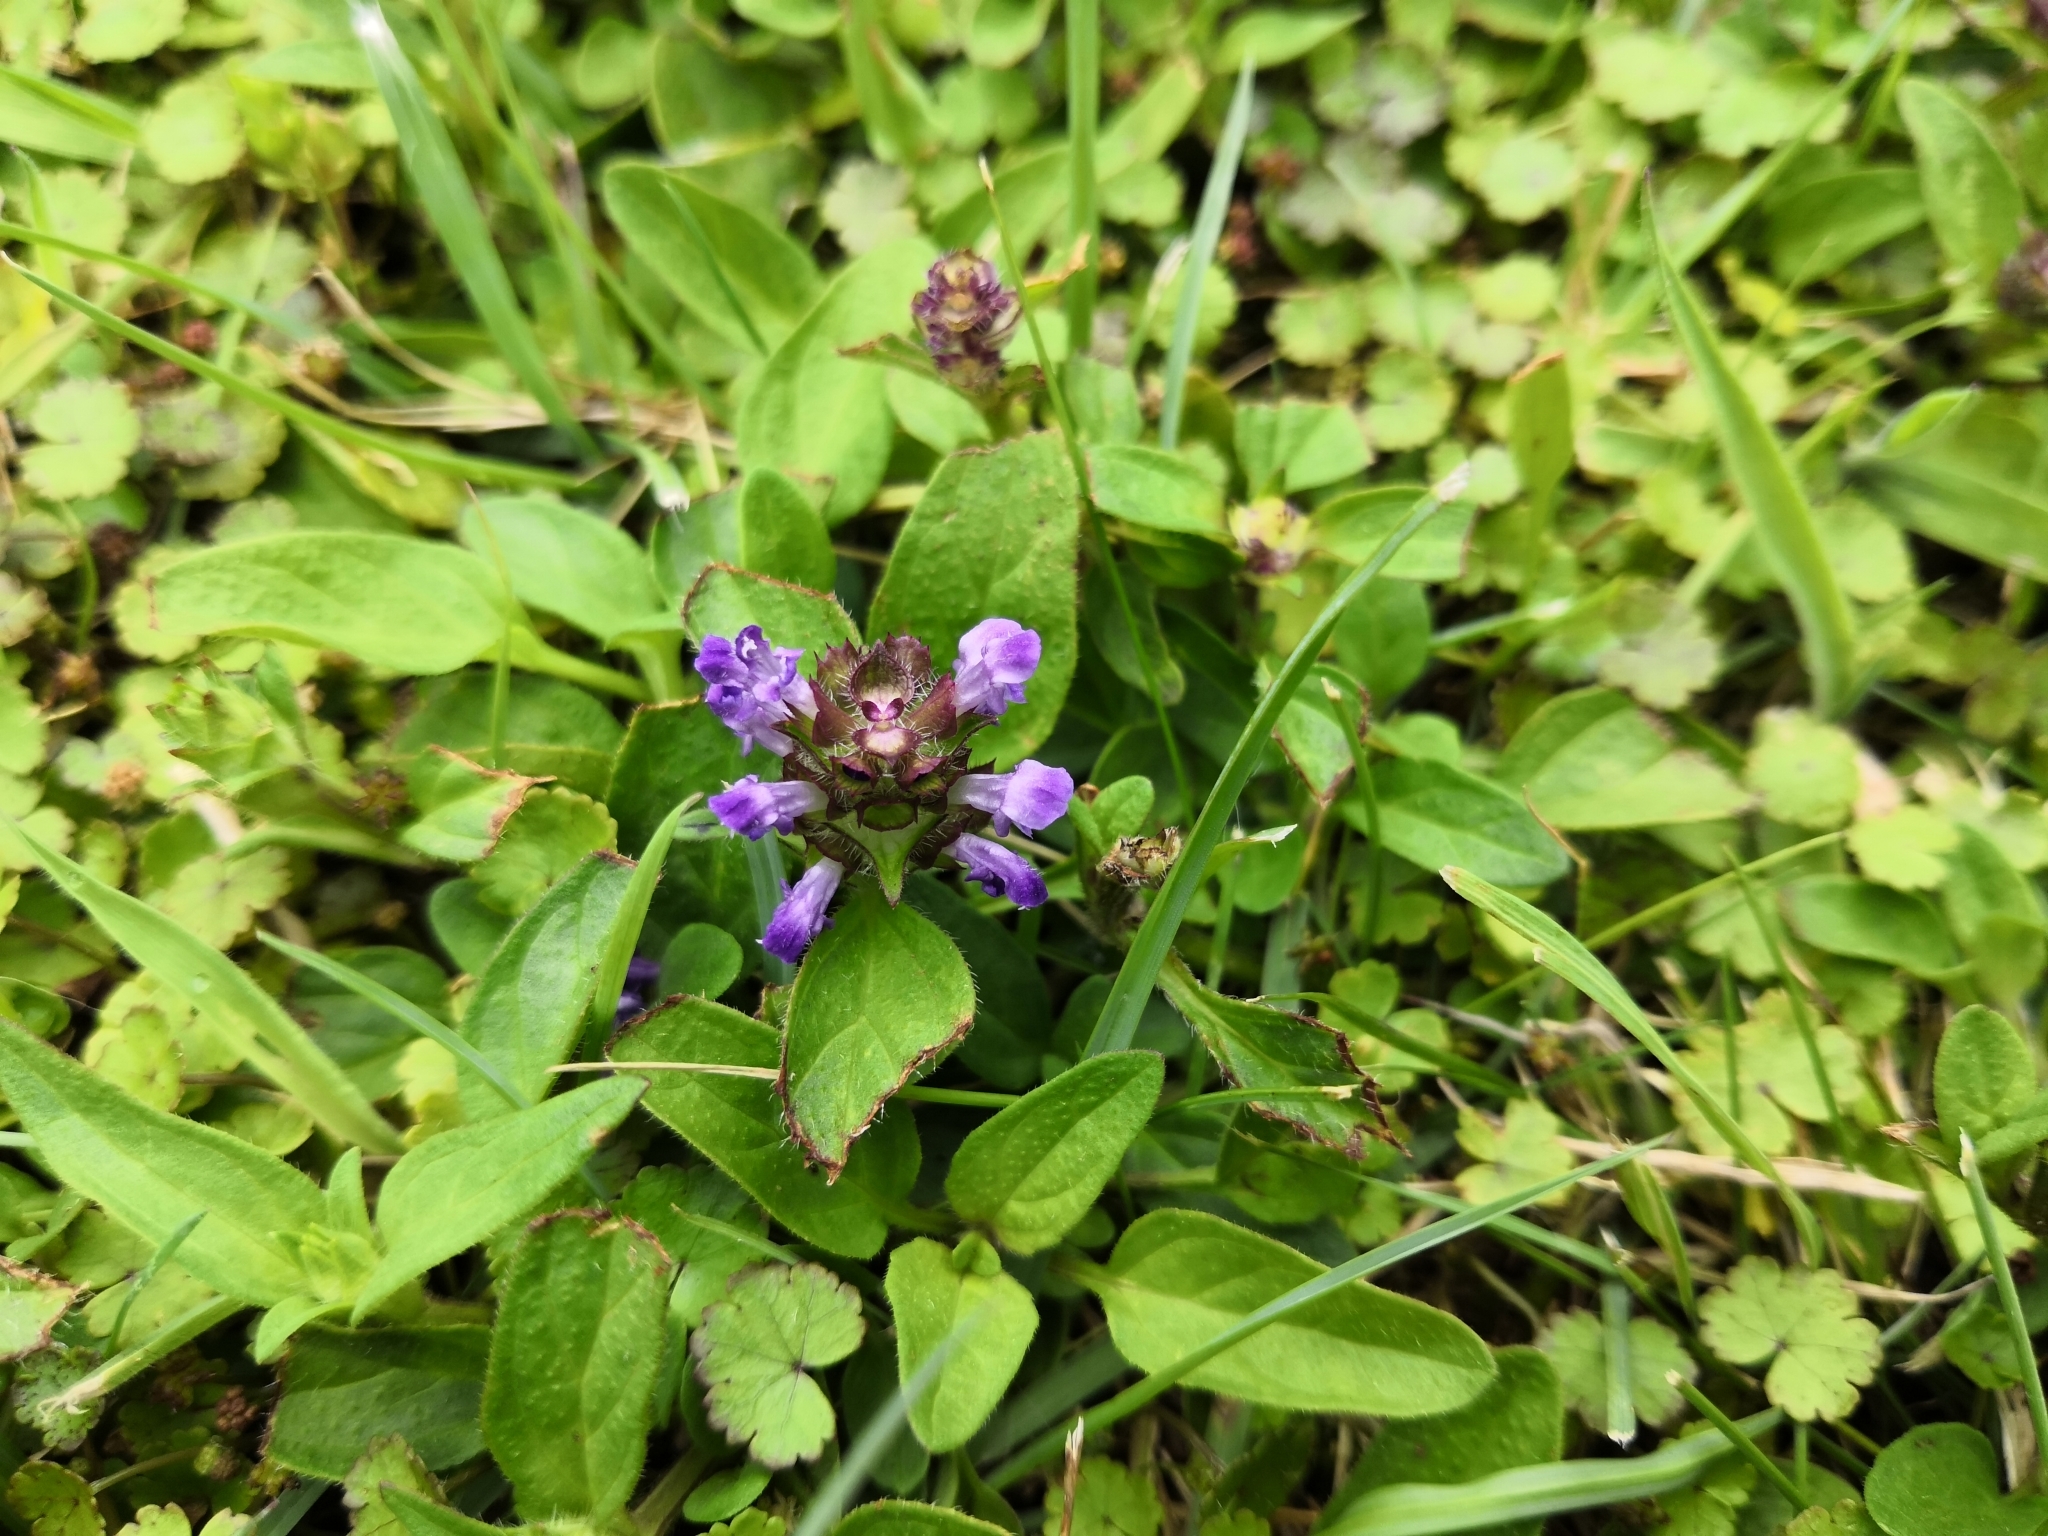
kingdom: Plantae
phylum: Tracheophyta
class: Magnoliopsida
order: Lamiales
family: Lamiaceae
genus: Prunella
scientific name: Prunella vulgaris
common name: Heal-all
